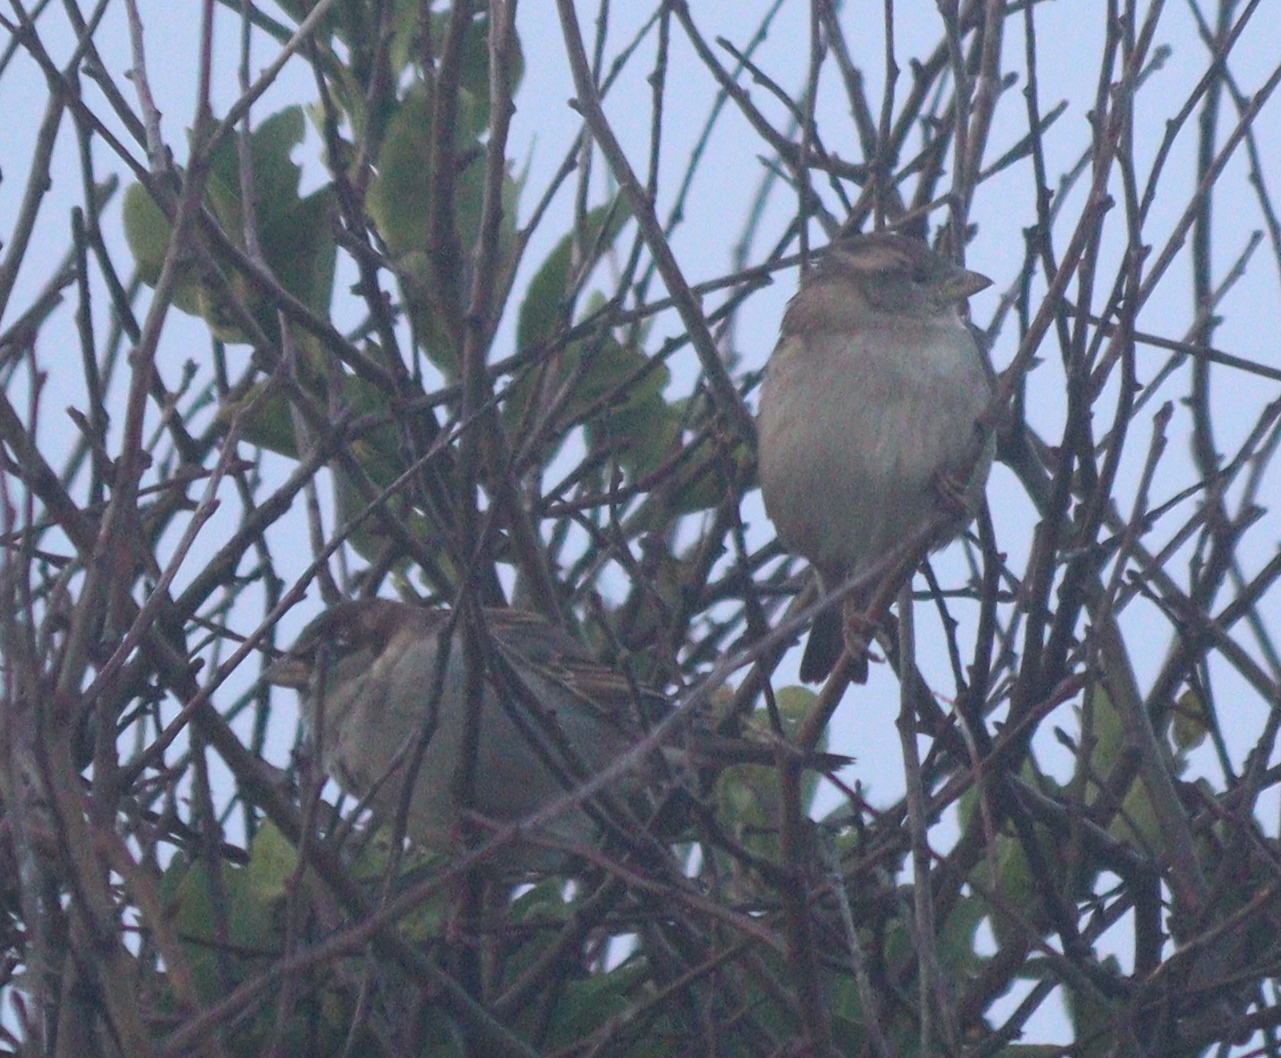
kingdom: Animalia
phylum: Chordata
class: Aves
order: Passeriformes
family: Passeridae
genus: Passer
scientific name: Passer domesticus
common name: House sparrow
